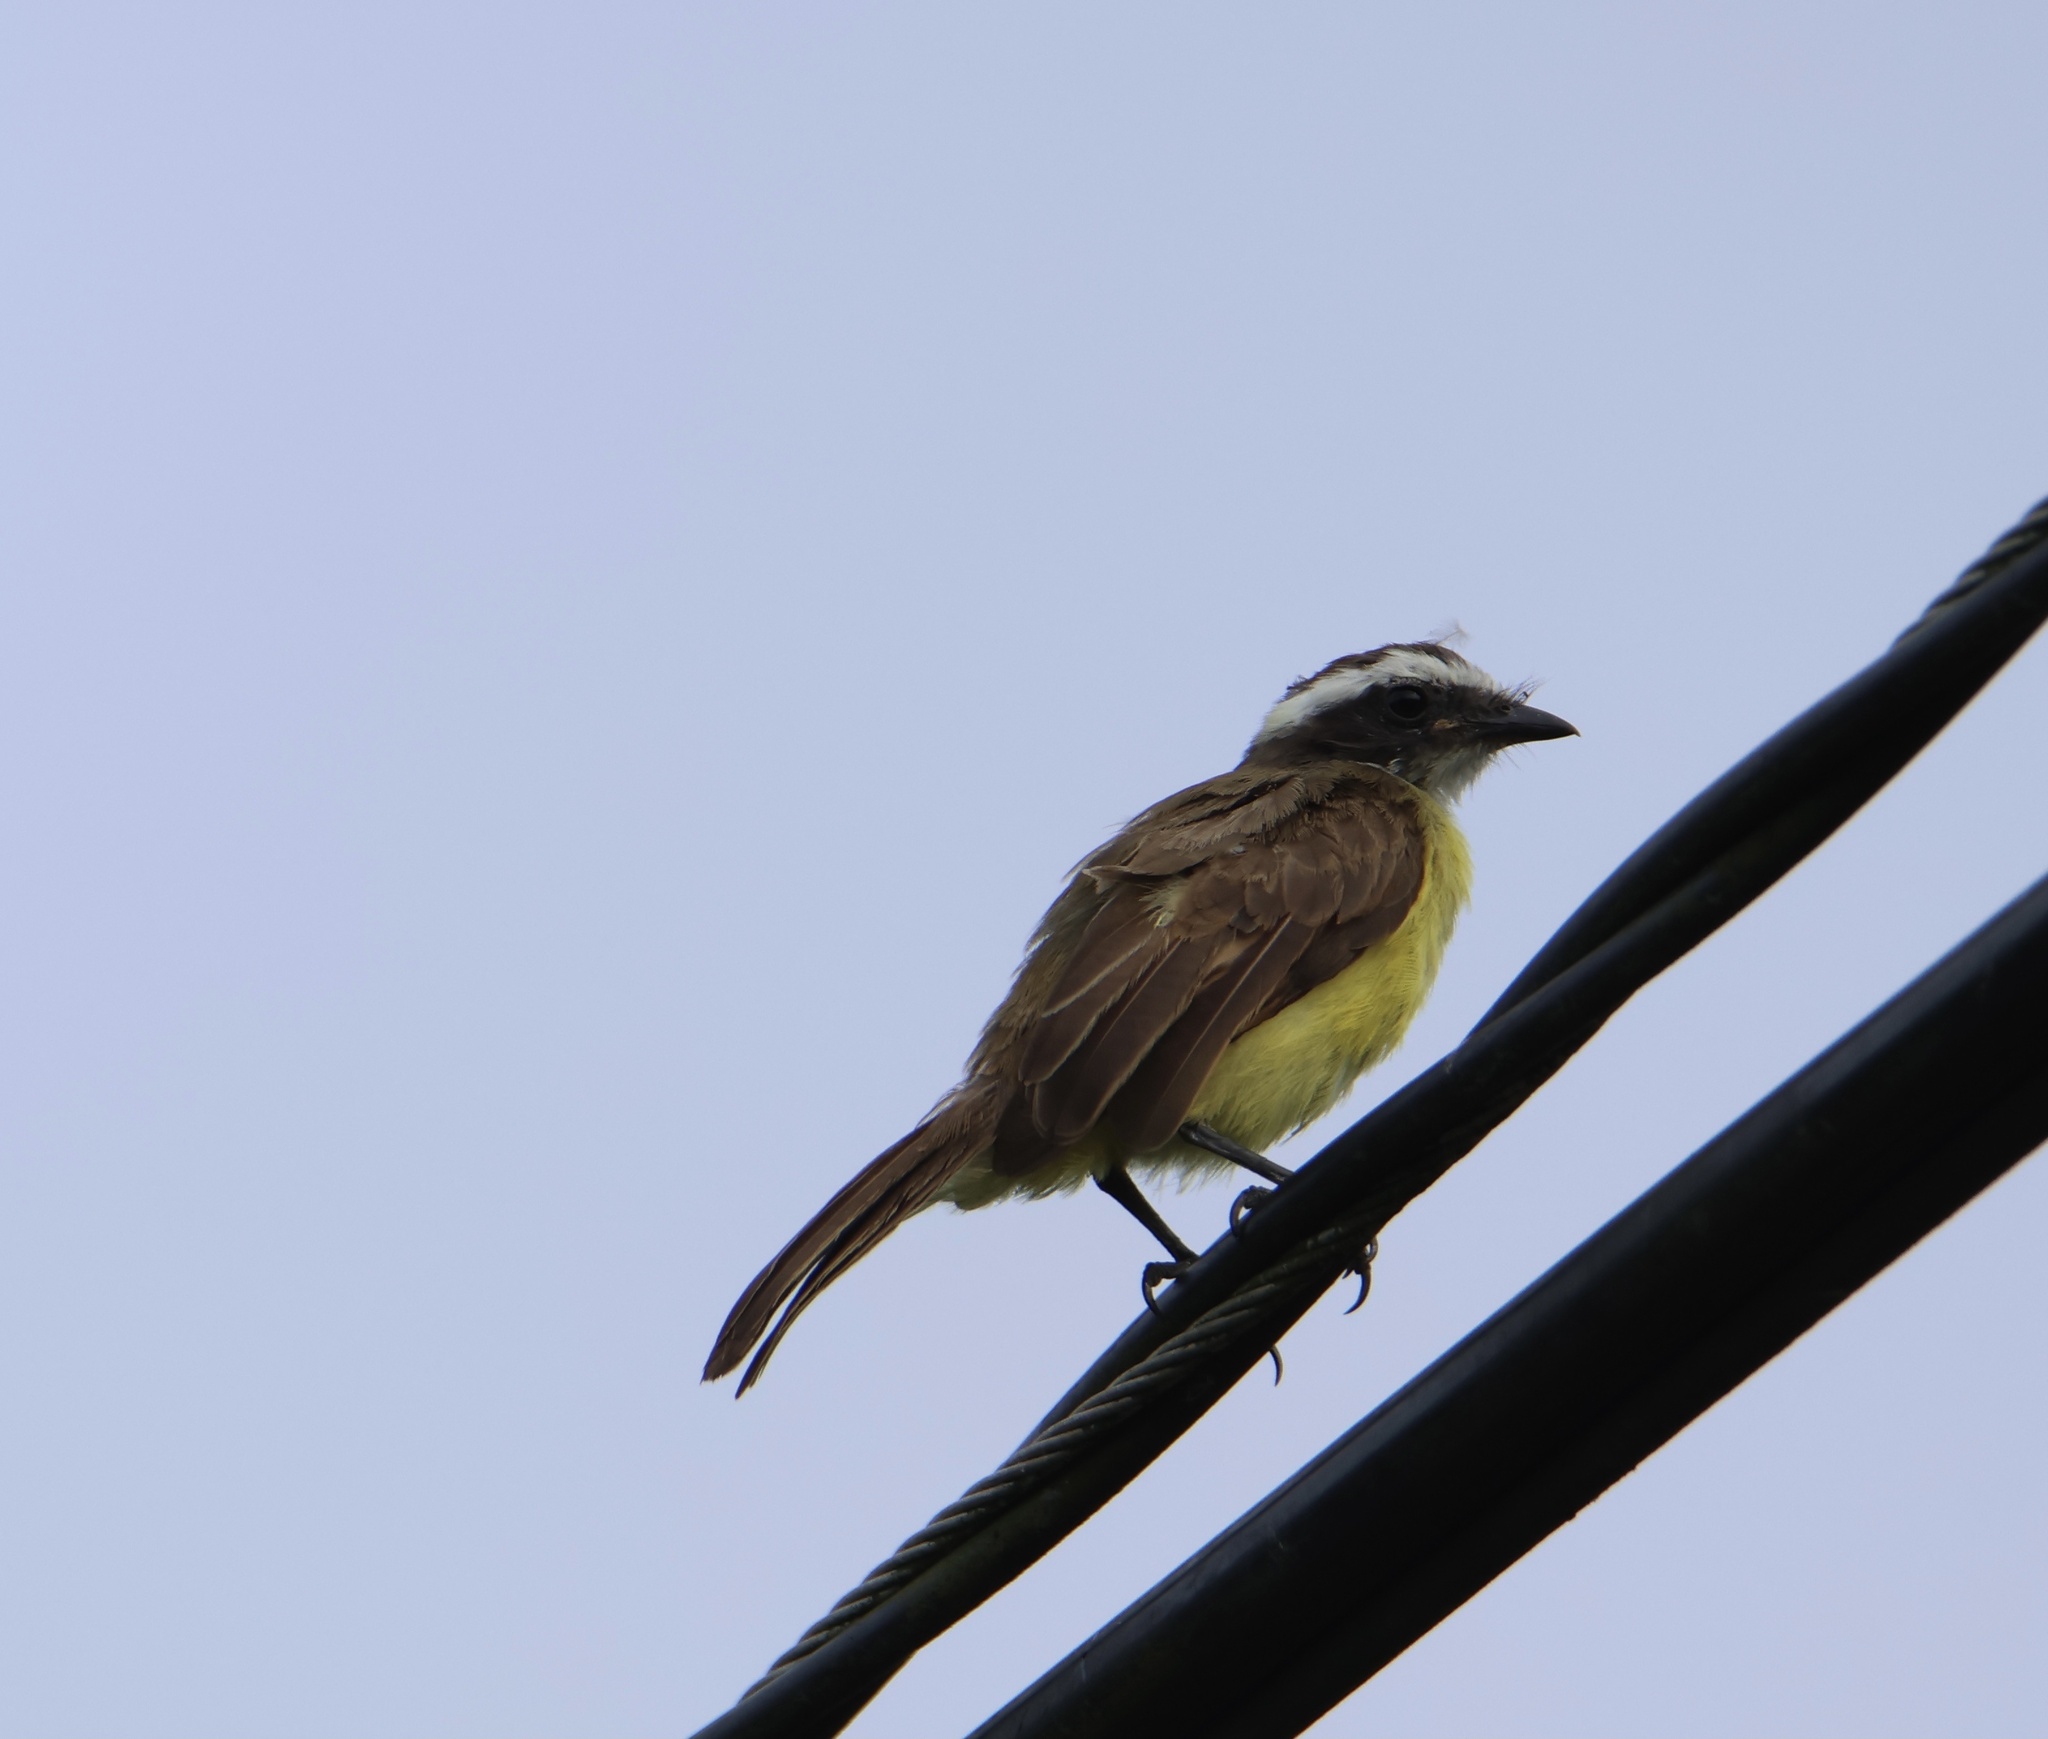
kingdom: Animalia
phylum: Chordata
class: Aves
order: Passeriformes
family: Tyrannidae
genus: Myiozetetes
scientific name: Myiozetetes cayanensis
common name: Rusty-margined flycatcher
